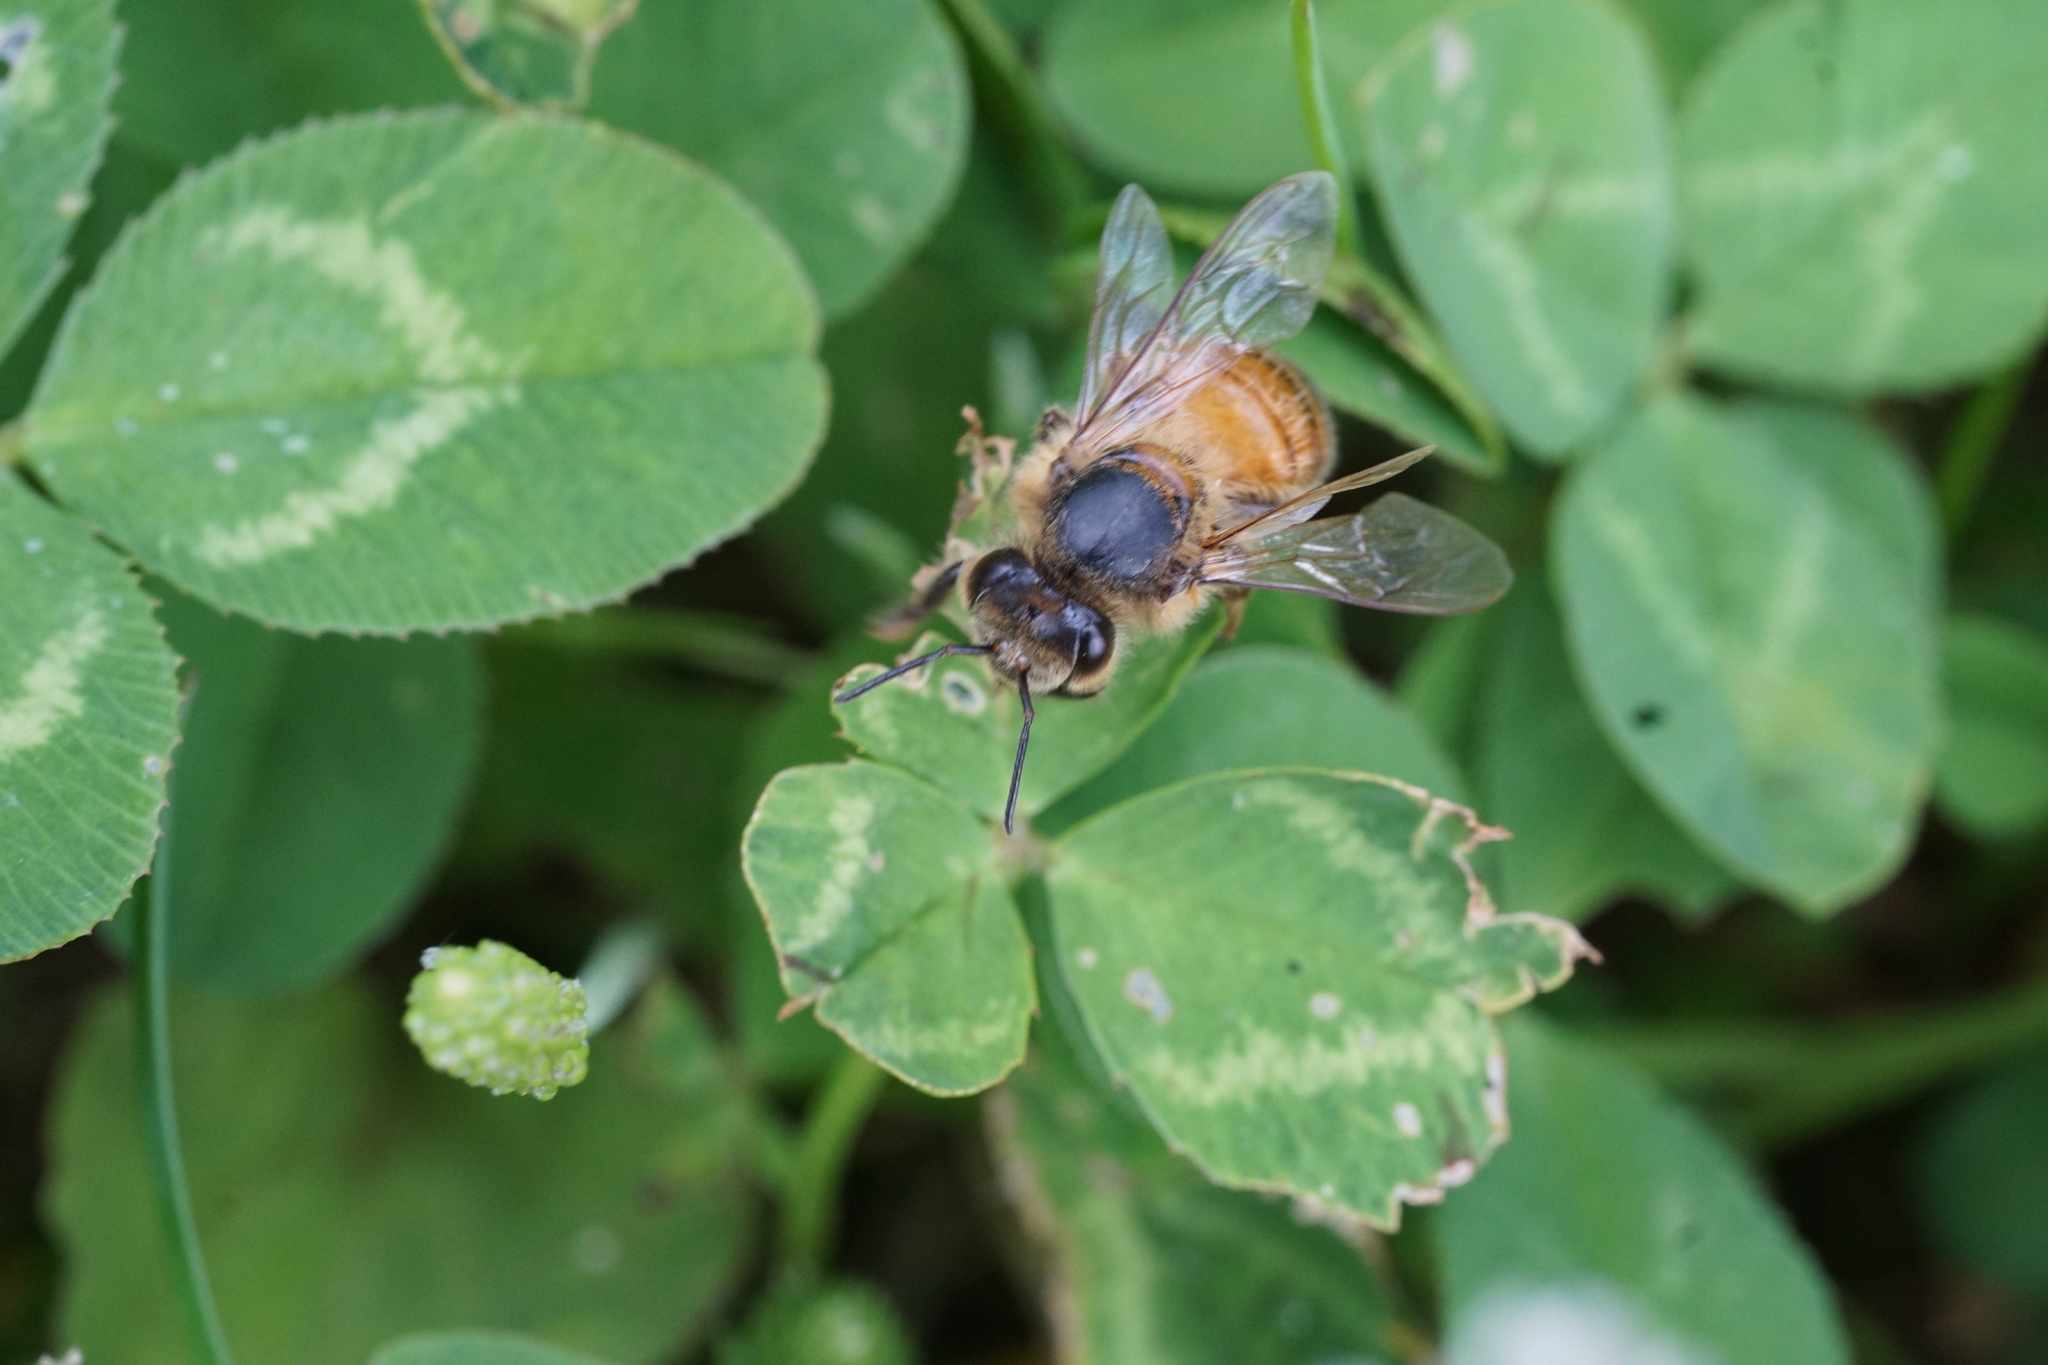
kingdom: Animalia
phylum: Arthropoda
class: Insecta
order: Hymenoptera
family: Apidae
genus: Apis
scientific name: Apis mellifera
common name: Honey bee
